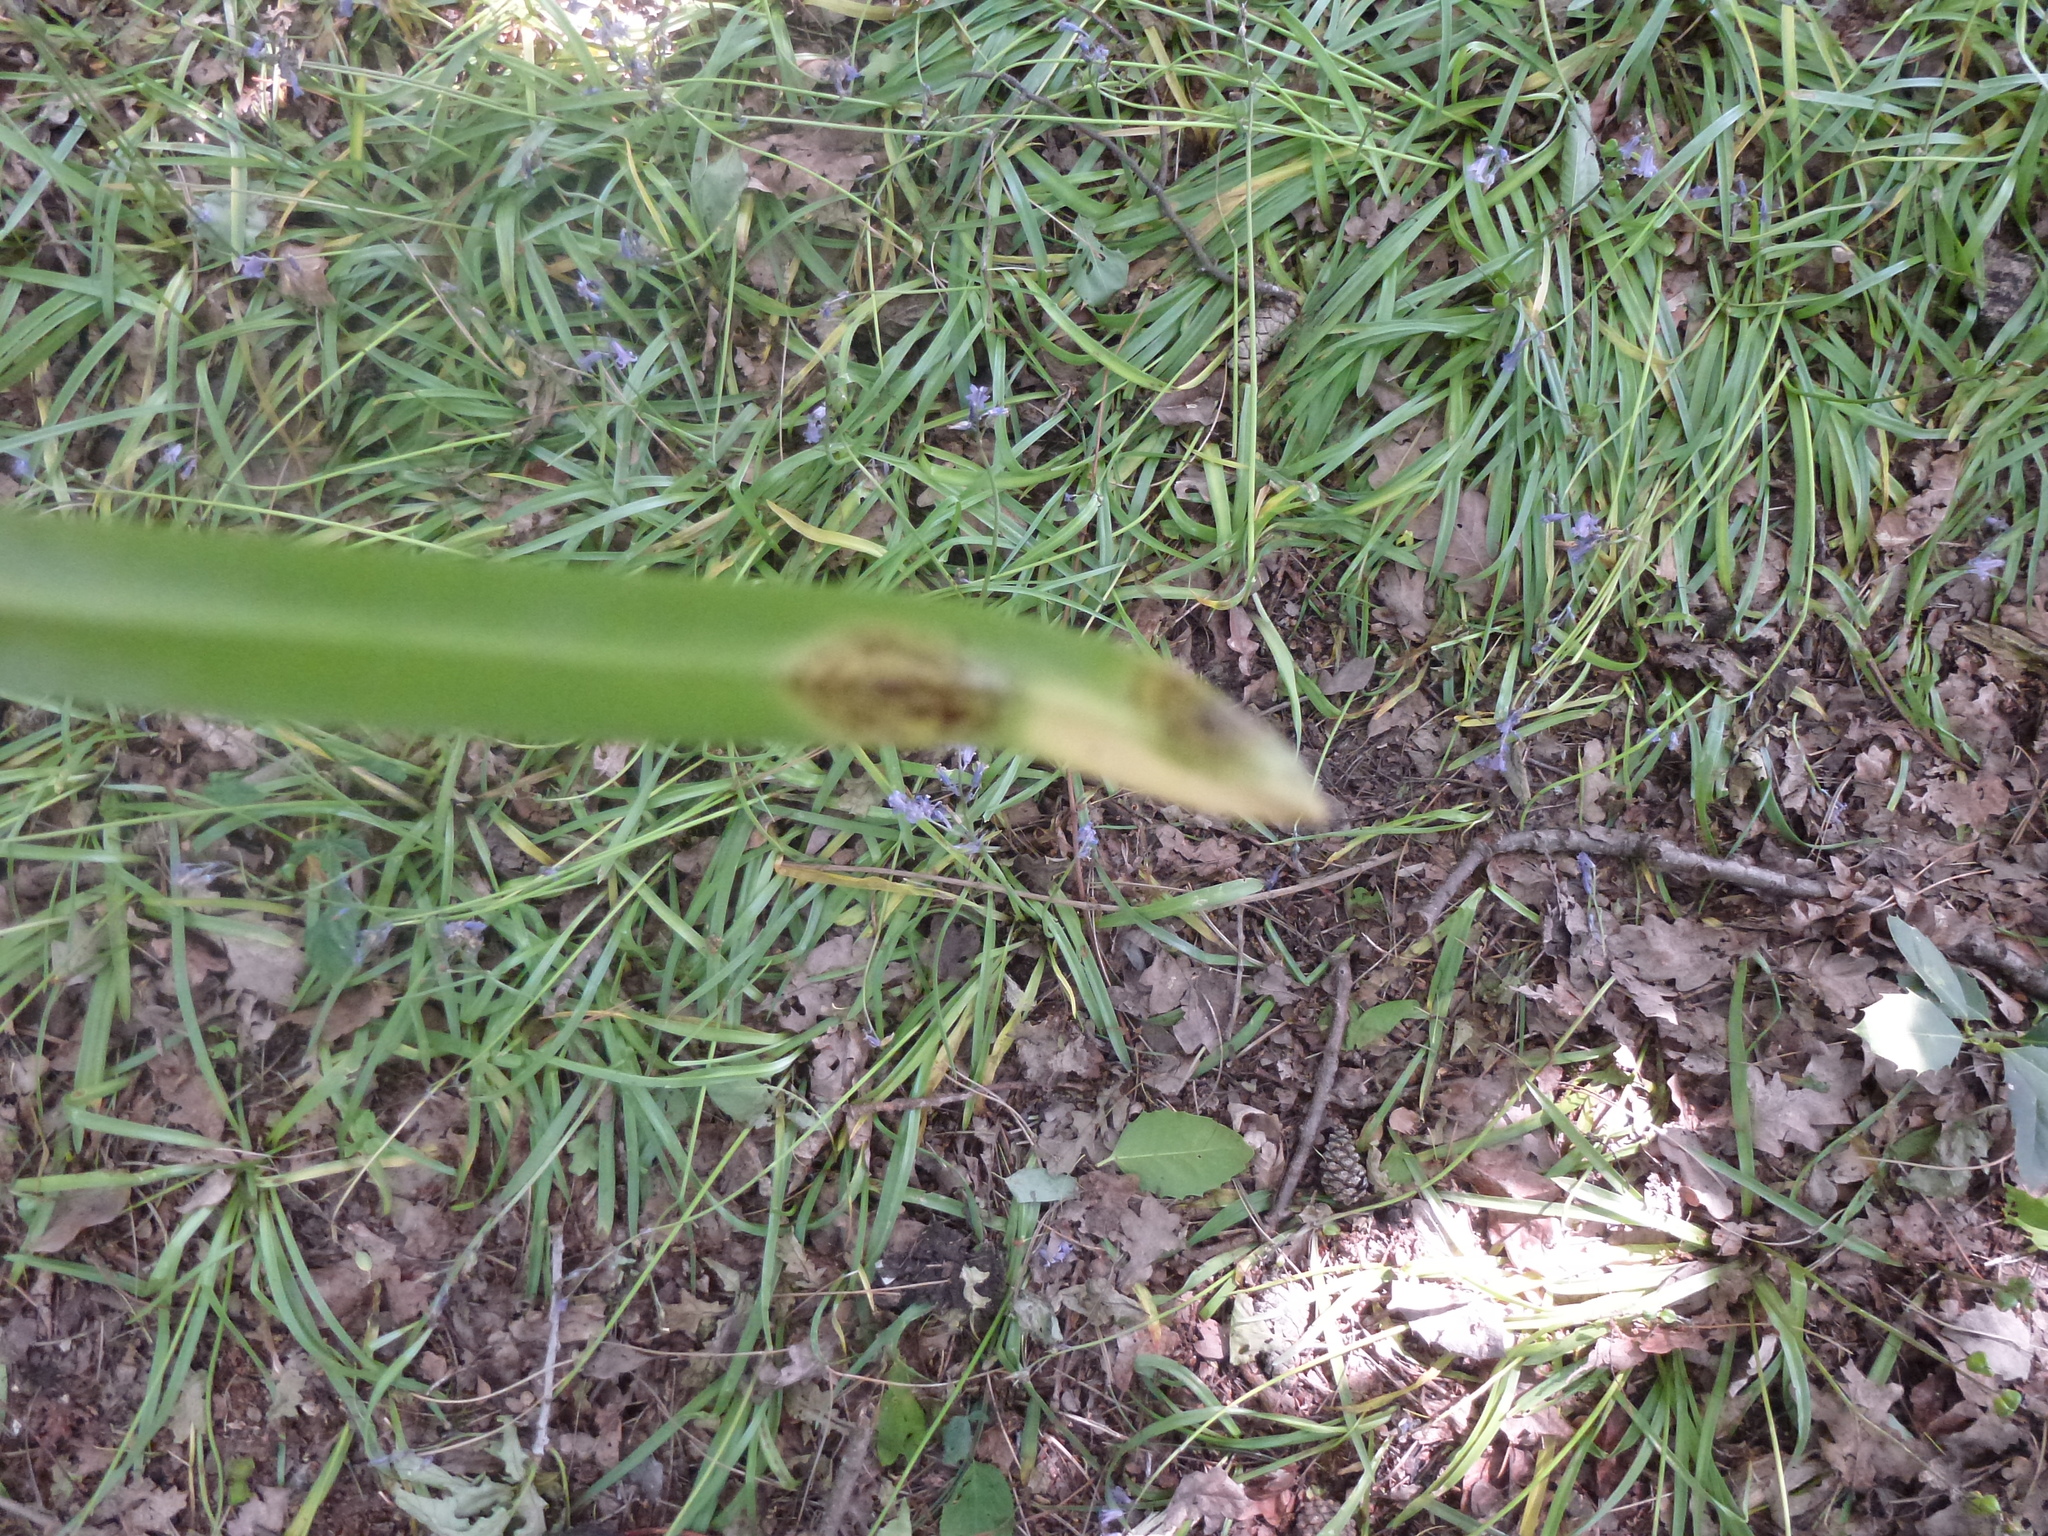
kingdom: Fungi
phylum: Basidiomycota
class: Pucciniomycetes
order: Pucciniales
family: Pucciniaceae
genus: Uromyces
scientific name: Uromyces hyacinthi
